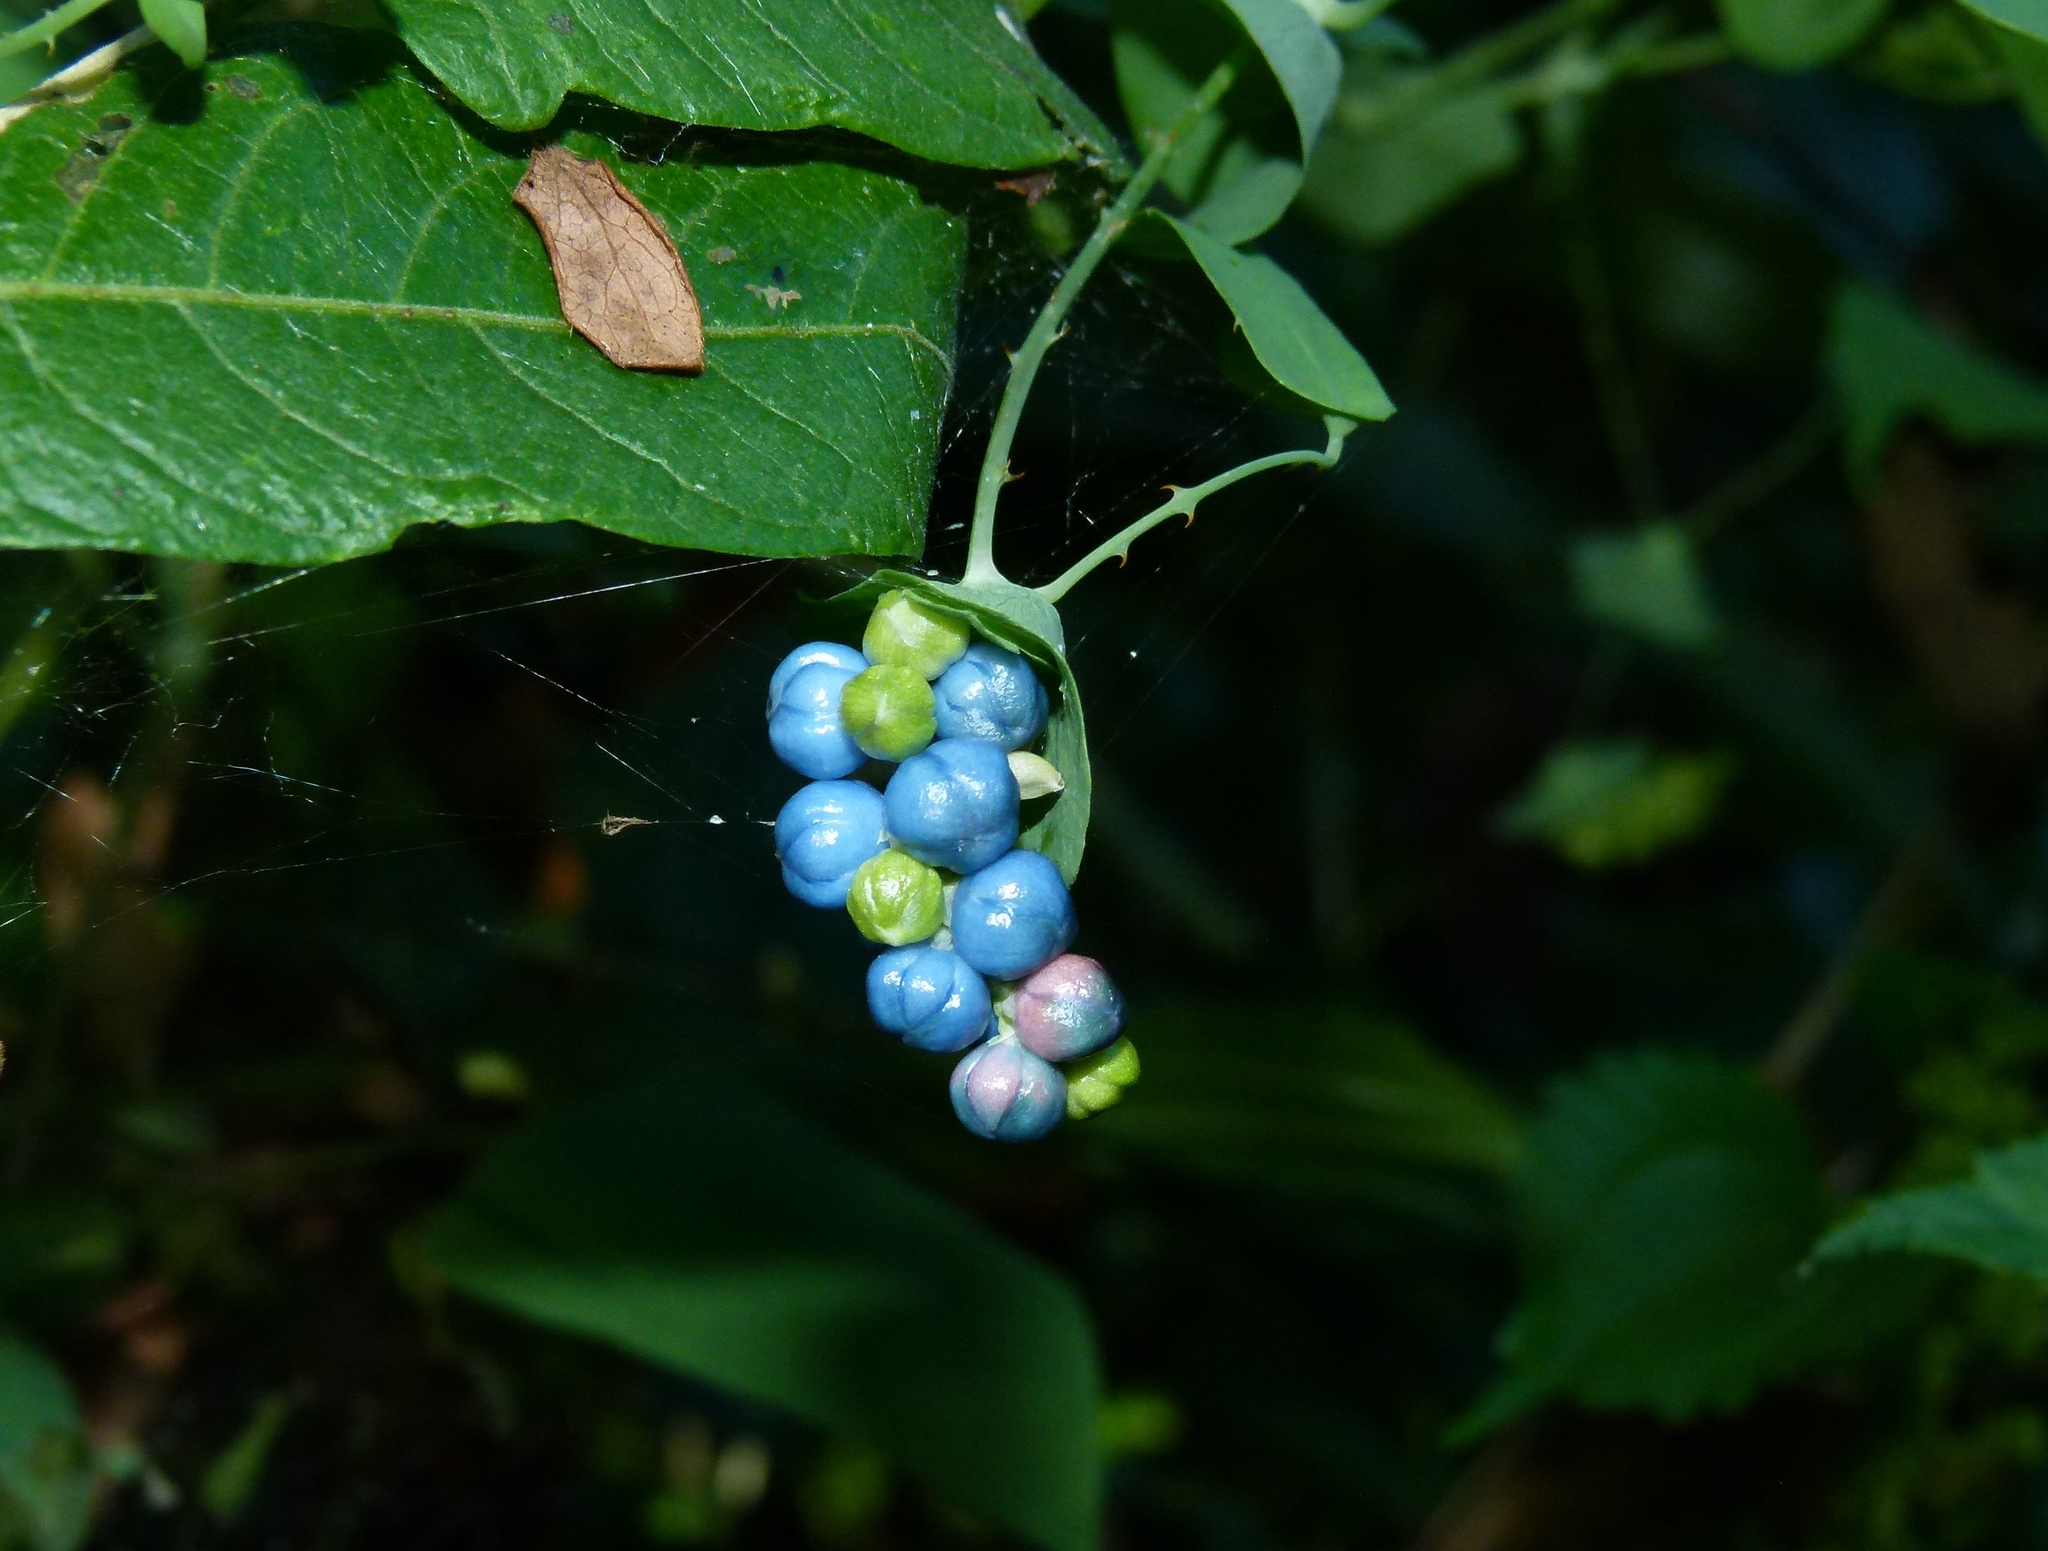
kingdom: Plantae
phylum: Tracheophyta
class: Magnoliopsida
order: Caryophyllales
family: Polygonaceae
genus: Persicaria
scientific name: Persicaria perfoliata
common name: Asiatic tearthumb
